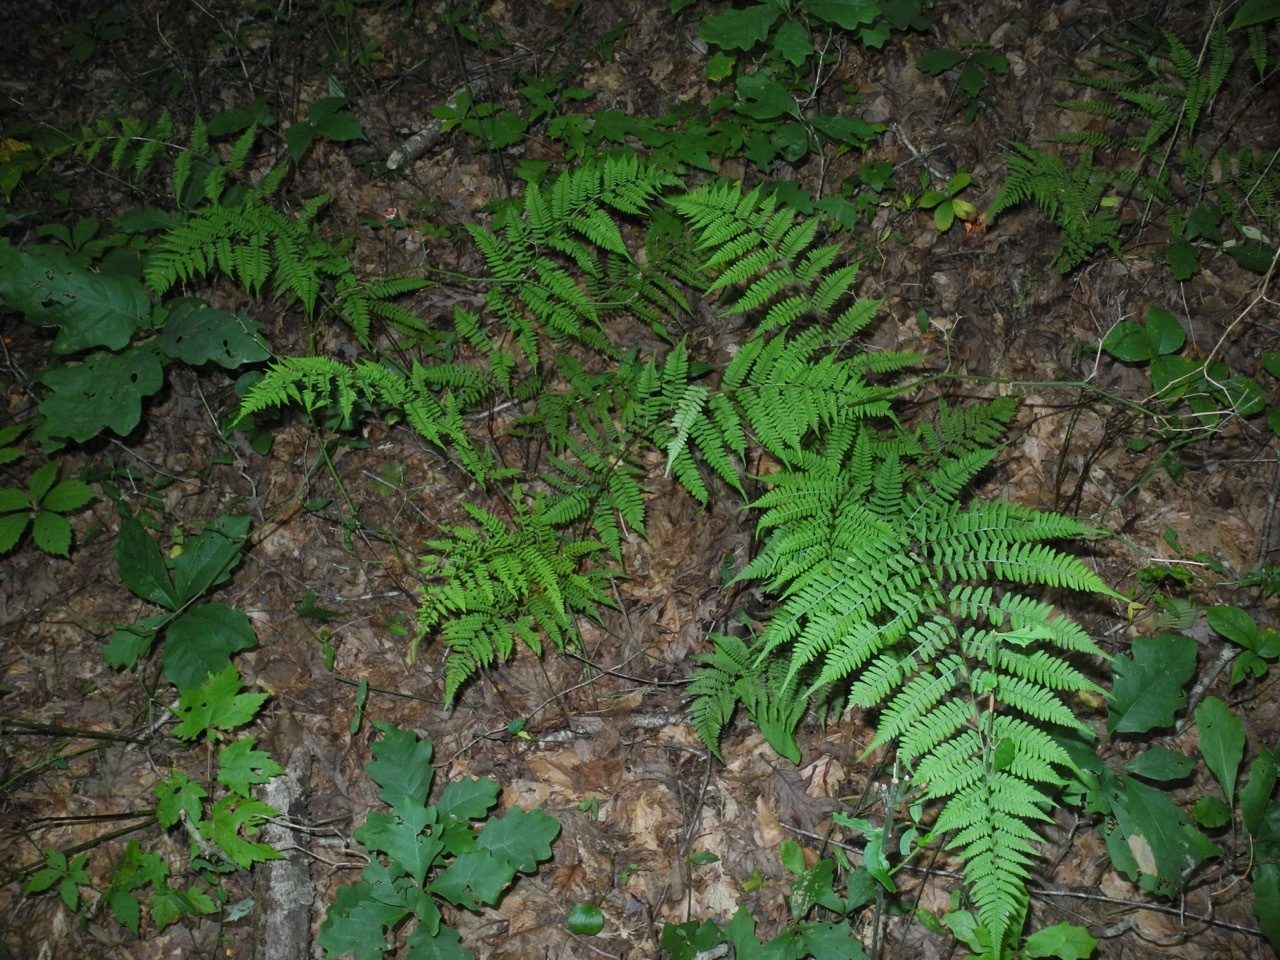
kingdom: Plantae
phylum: Tracheophyta
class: Polypodiopsida
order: Polypodiales
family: Athyriaceae
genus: Athyrium
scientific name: Athyrium asplenioides
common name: Southern lady fern
